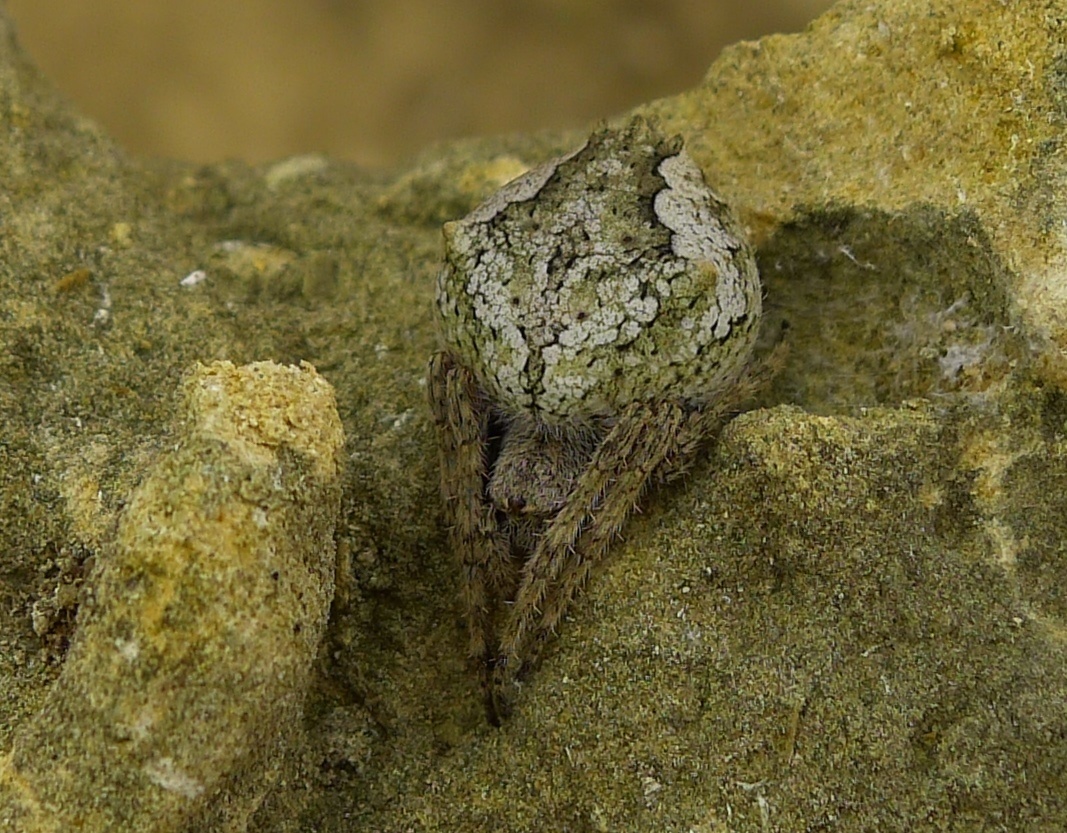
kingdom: Animalia
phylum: Arthropoda
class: Arachnida
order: Araneae
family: Araneidae
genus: Eriophora
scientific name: Eriophora pustulosa
